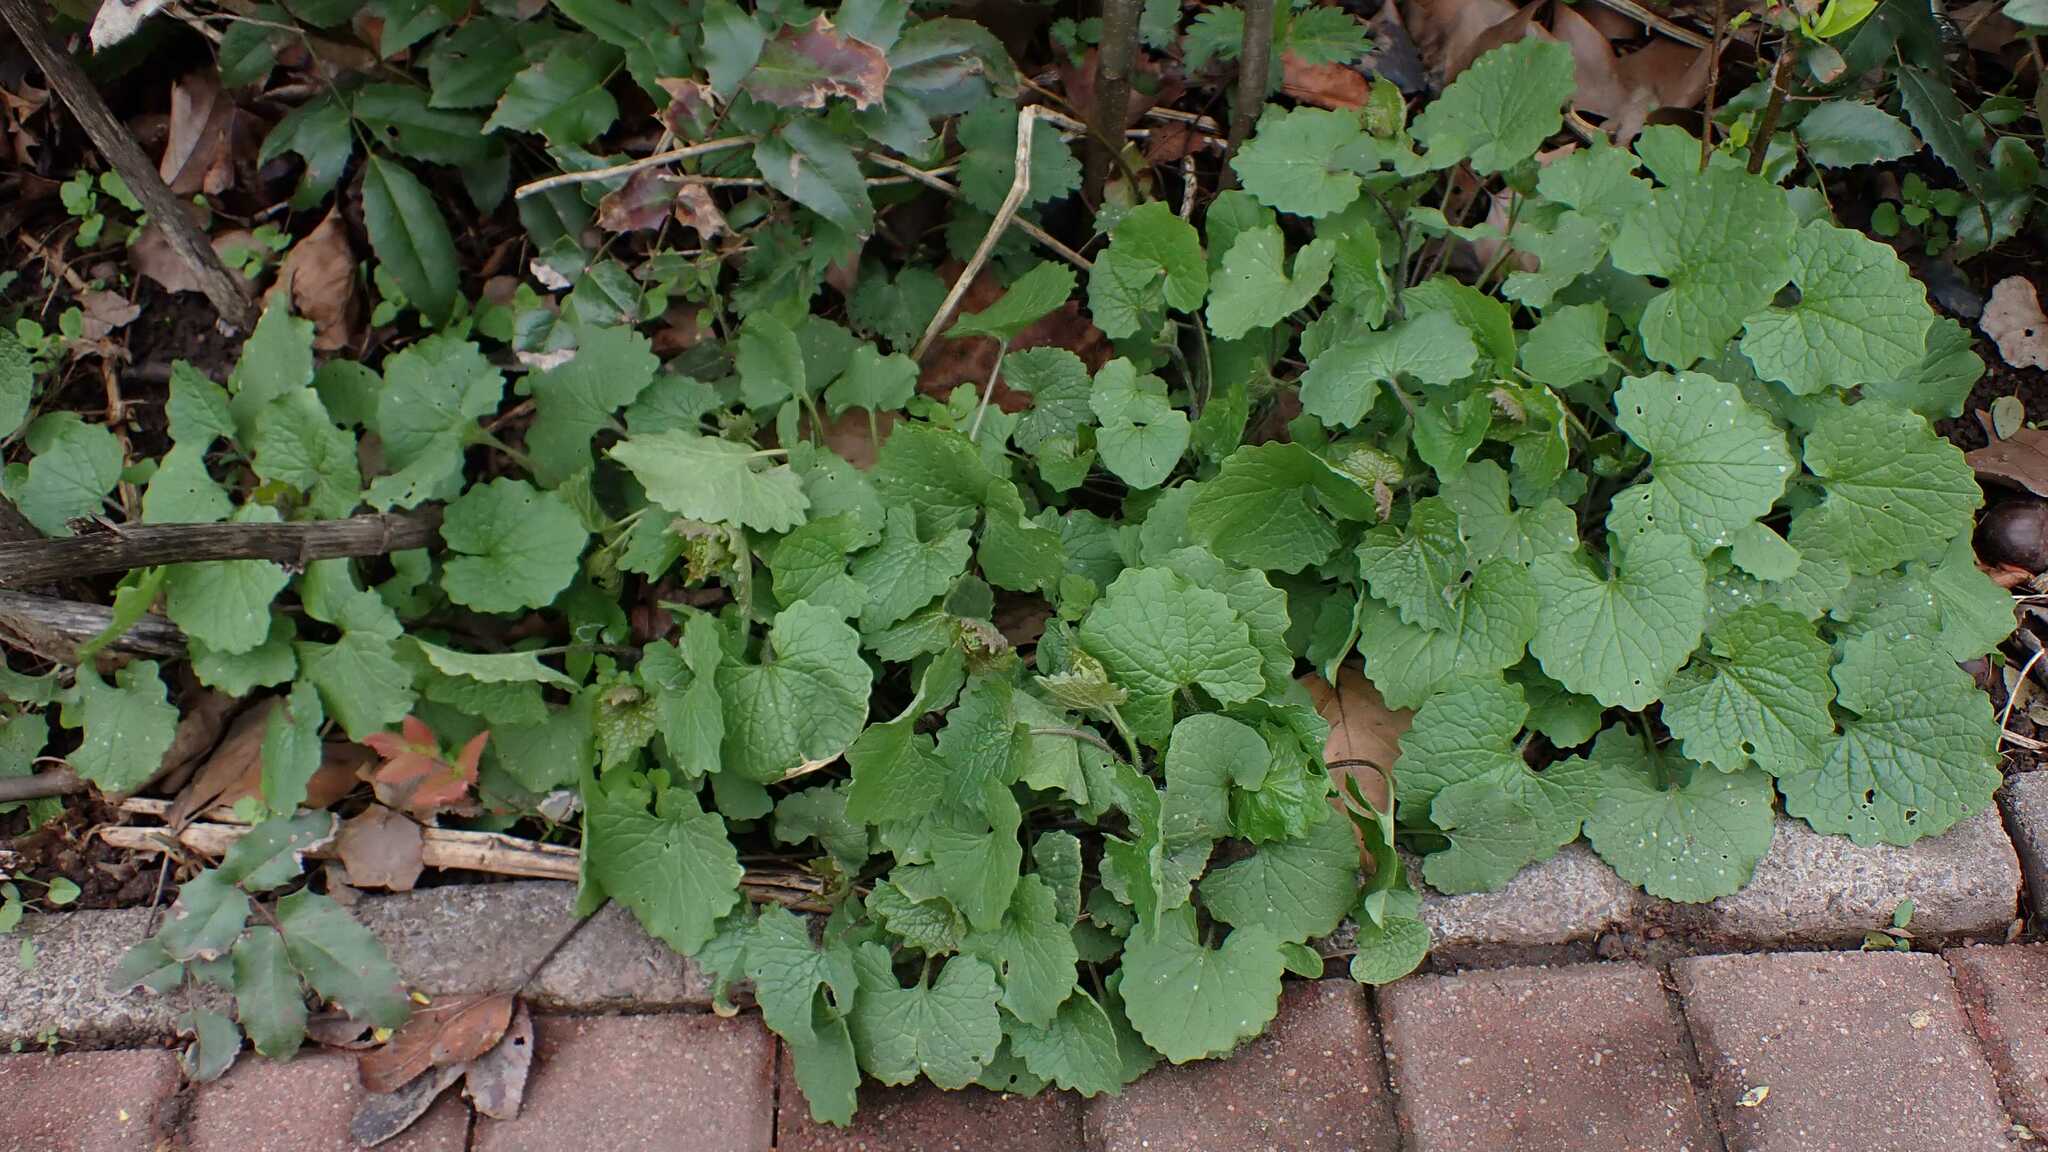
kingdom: Plantae
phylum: Tracheophyta
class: Magnoliopsida
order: Brassicales
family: Brassicaceae
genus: Alliaria
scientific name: Alliaria petiolata
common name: Garlic mustard
